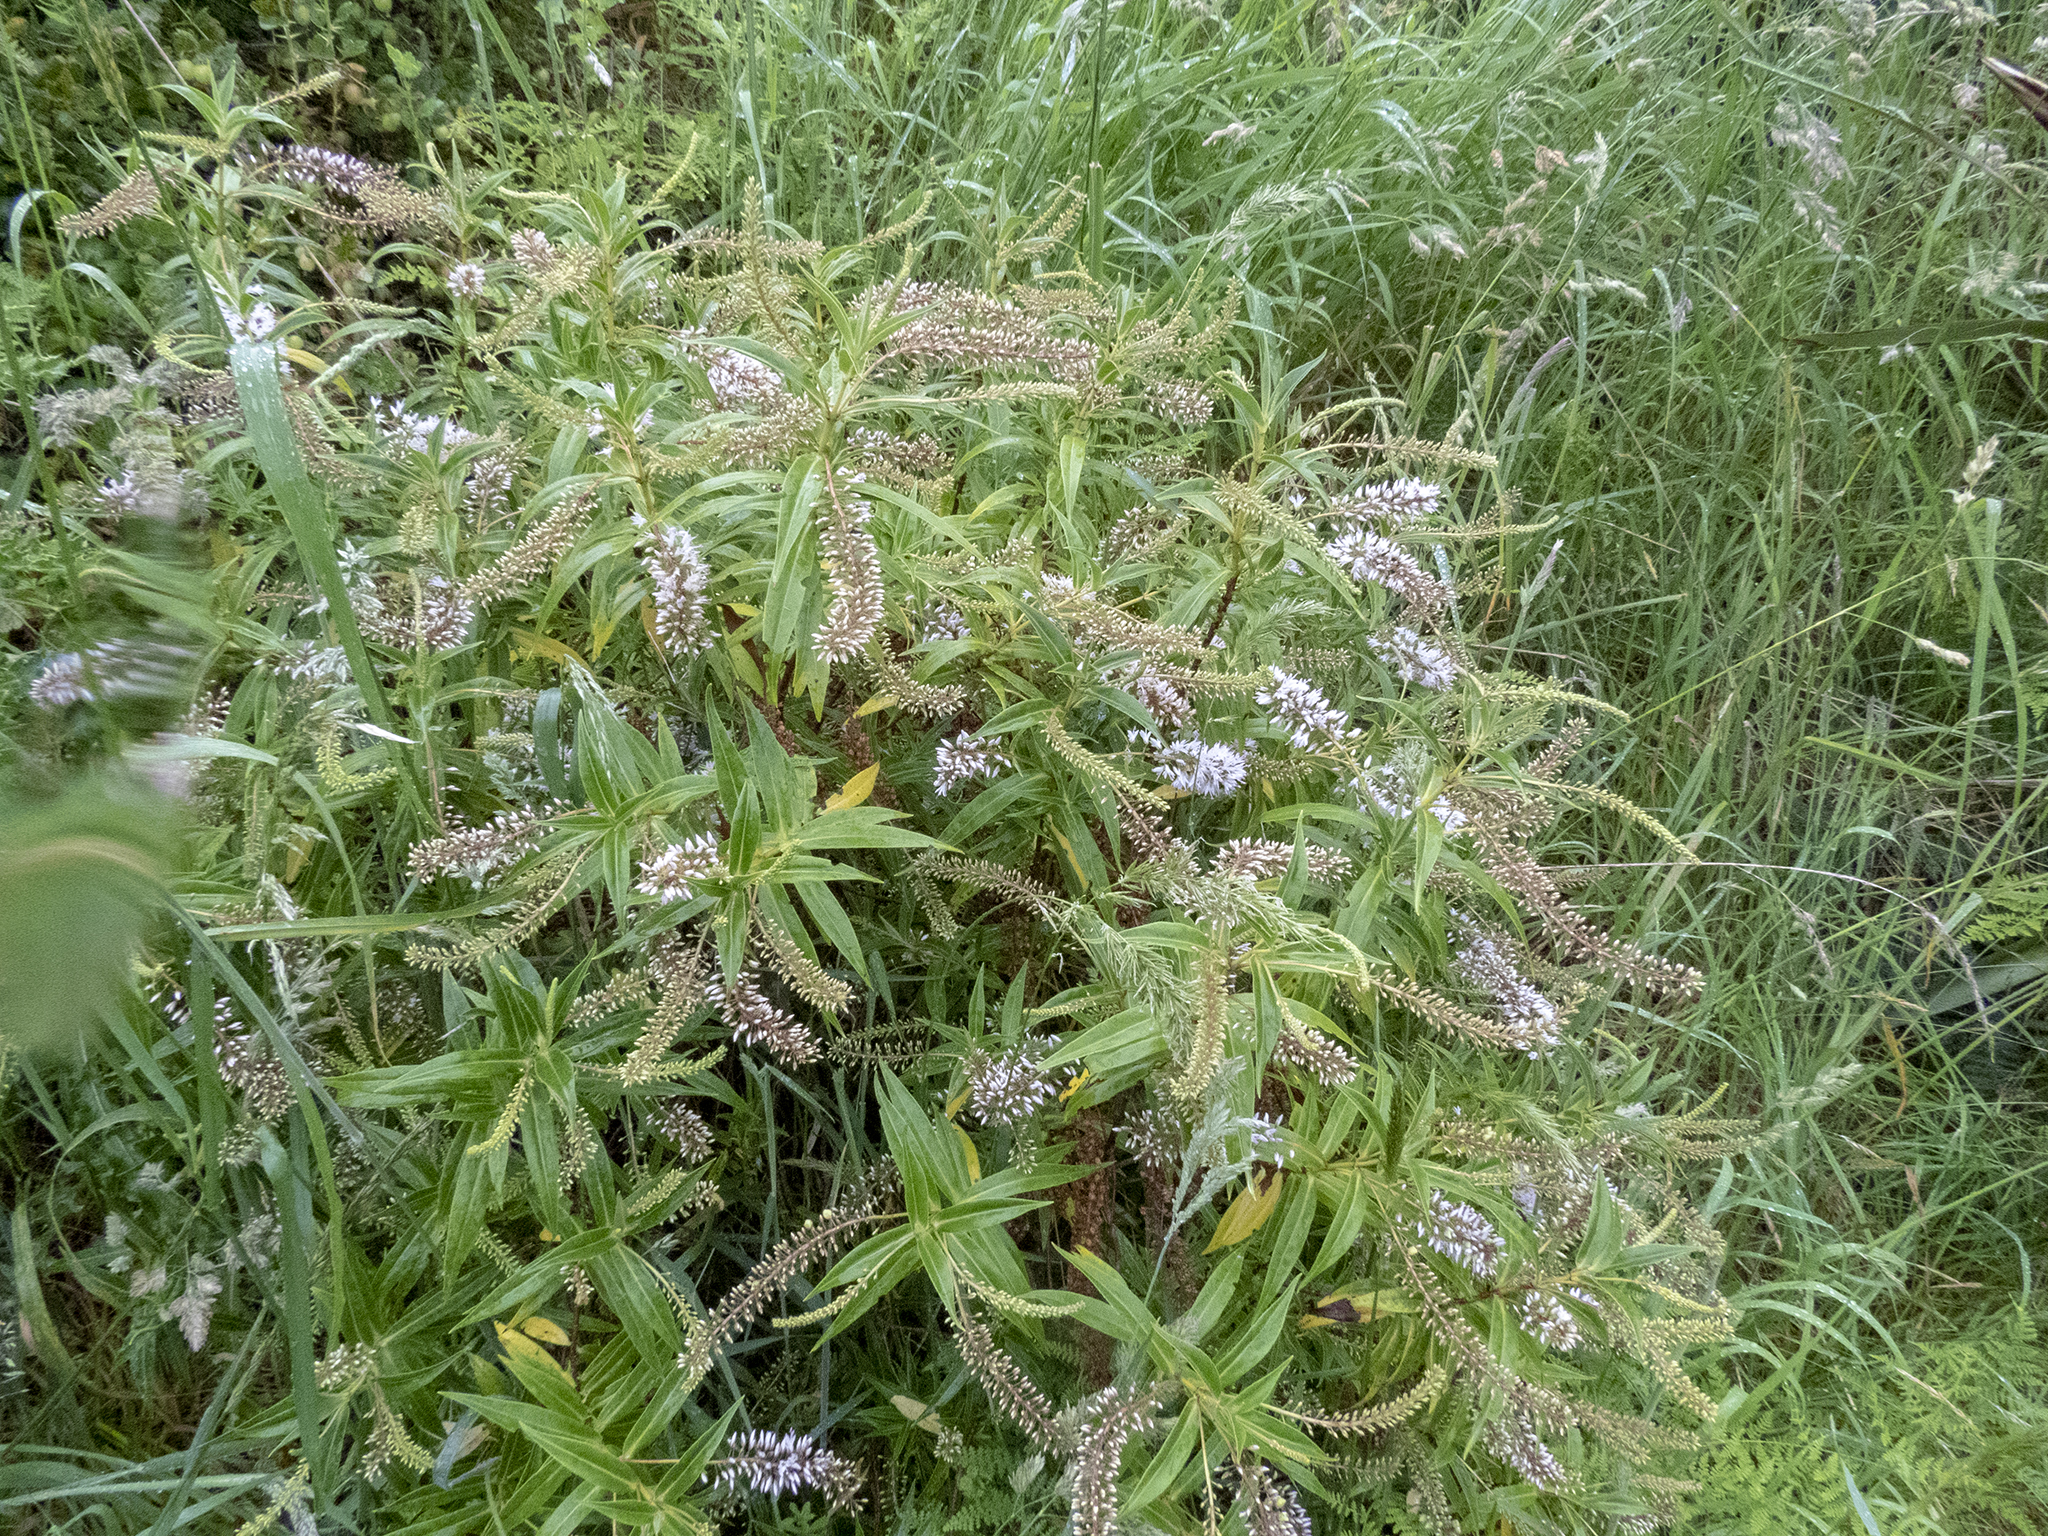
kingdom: Plantae
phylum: Tracheophyta
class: Magnoliopsida
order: Lamiales
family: Plantaginaceae
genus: Veronica
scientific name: Veronica salicifolia
